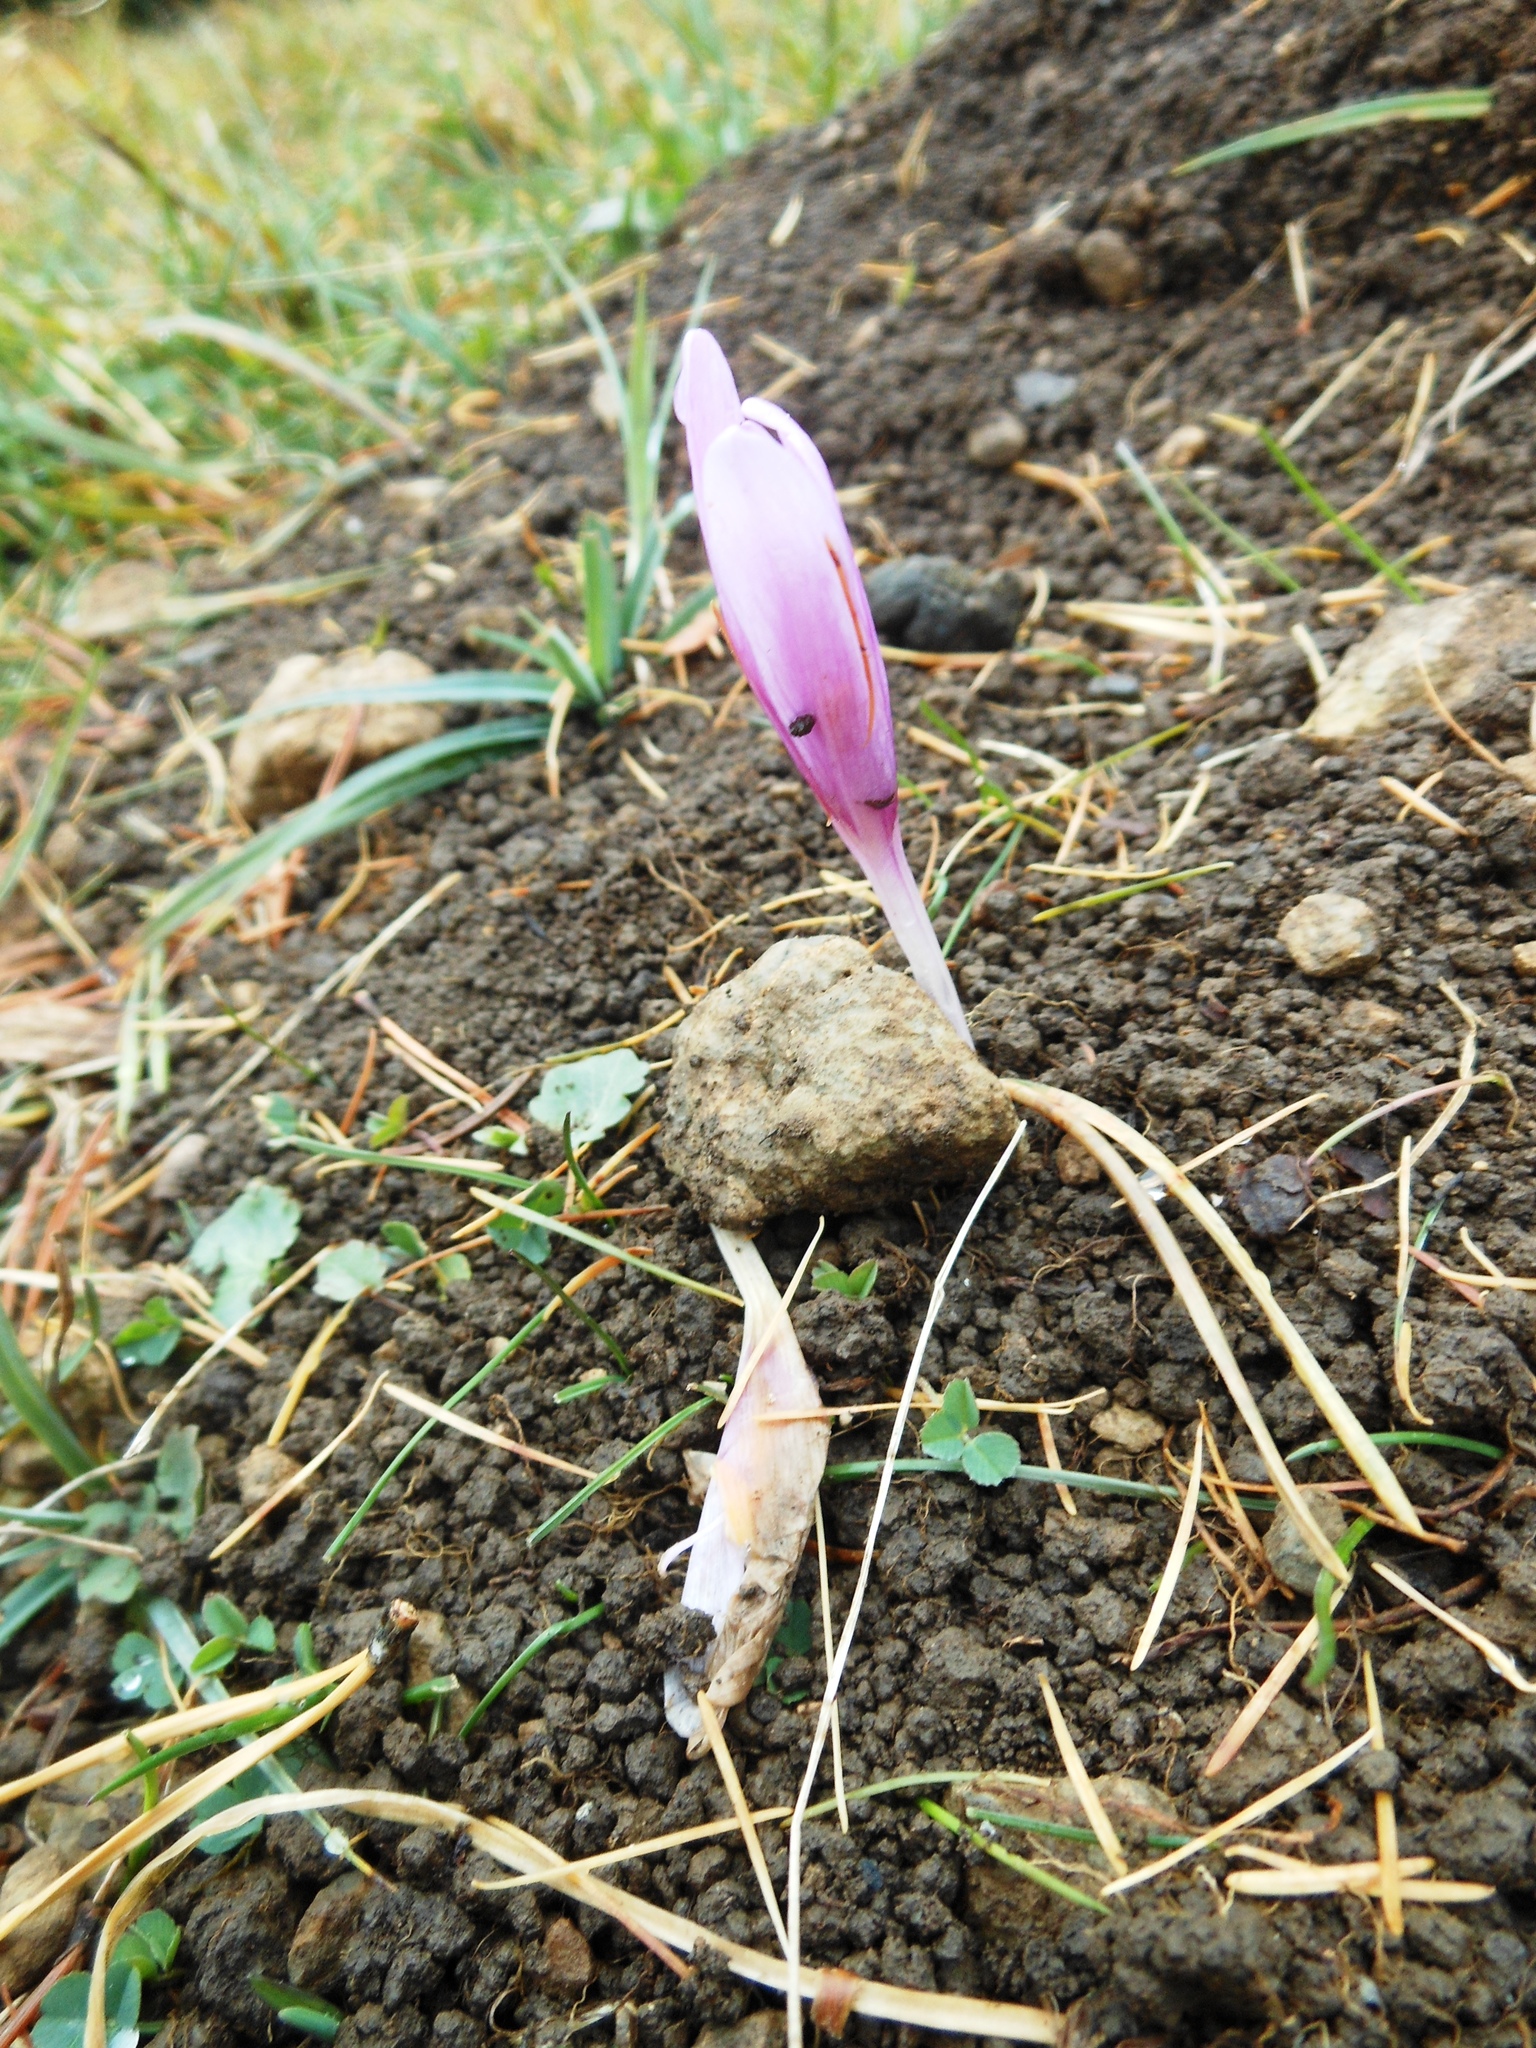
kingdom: Plantae
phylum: Tracheophyta
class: Liliopsida
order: Liliales
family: Colchicaceae
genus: Colchicum
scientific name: Colchicum autumnale
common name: Autumn crocus
